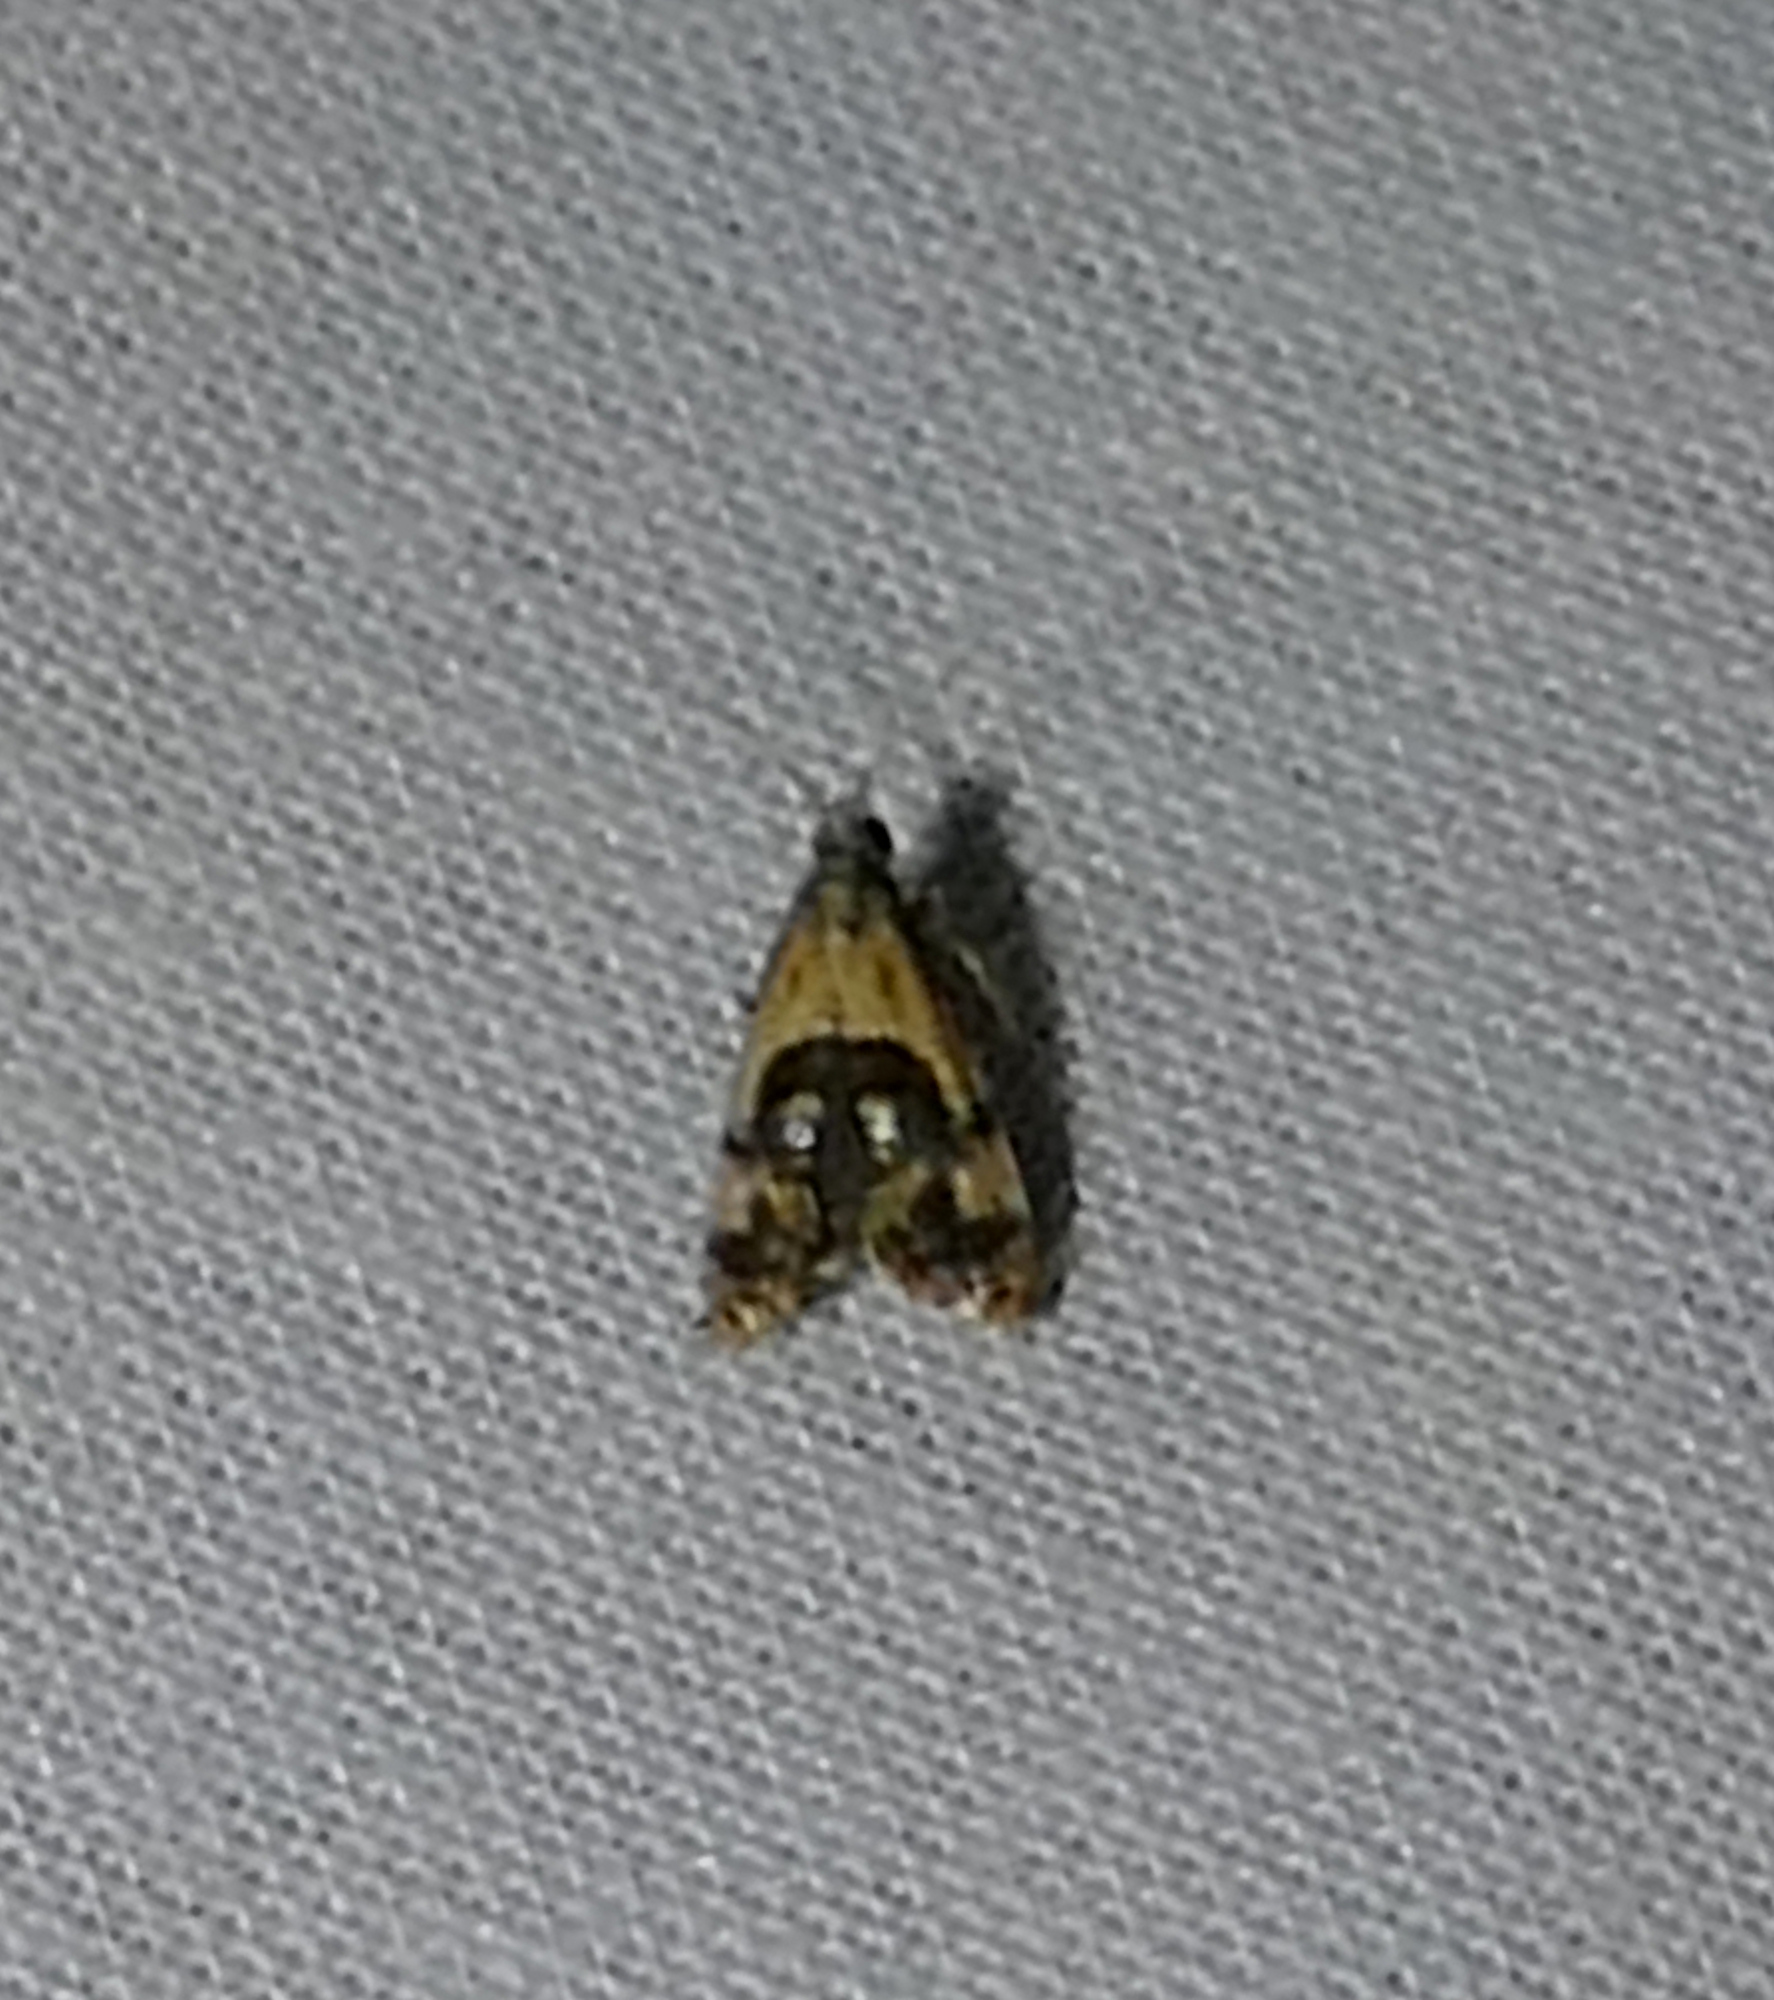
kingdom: Animalia
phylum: Arthropoda
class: Insecta
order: Lepidoptera
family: Noctuidae
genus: Tripudia
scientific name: Tripudia quadrifera
